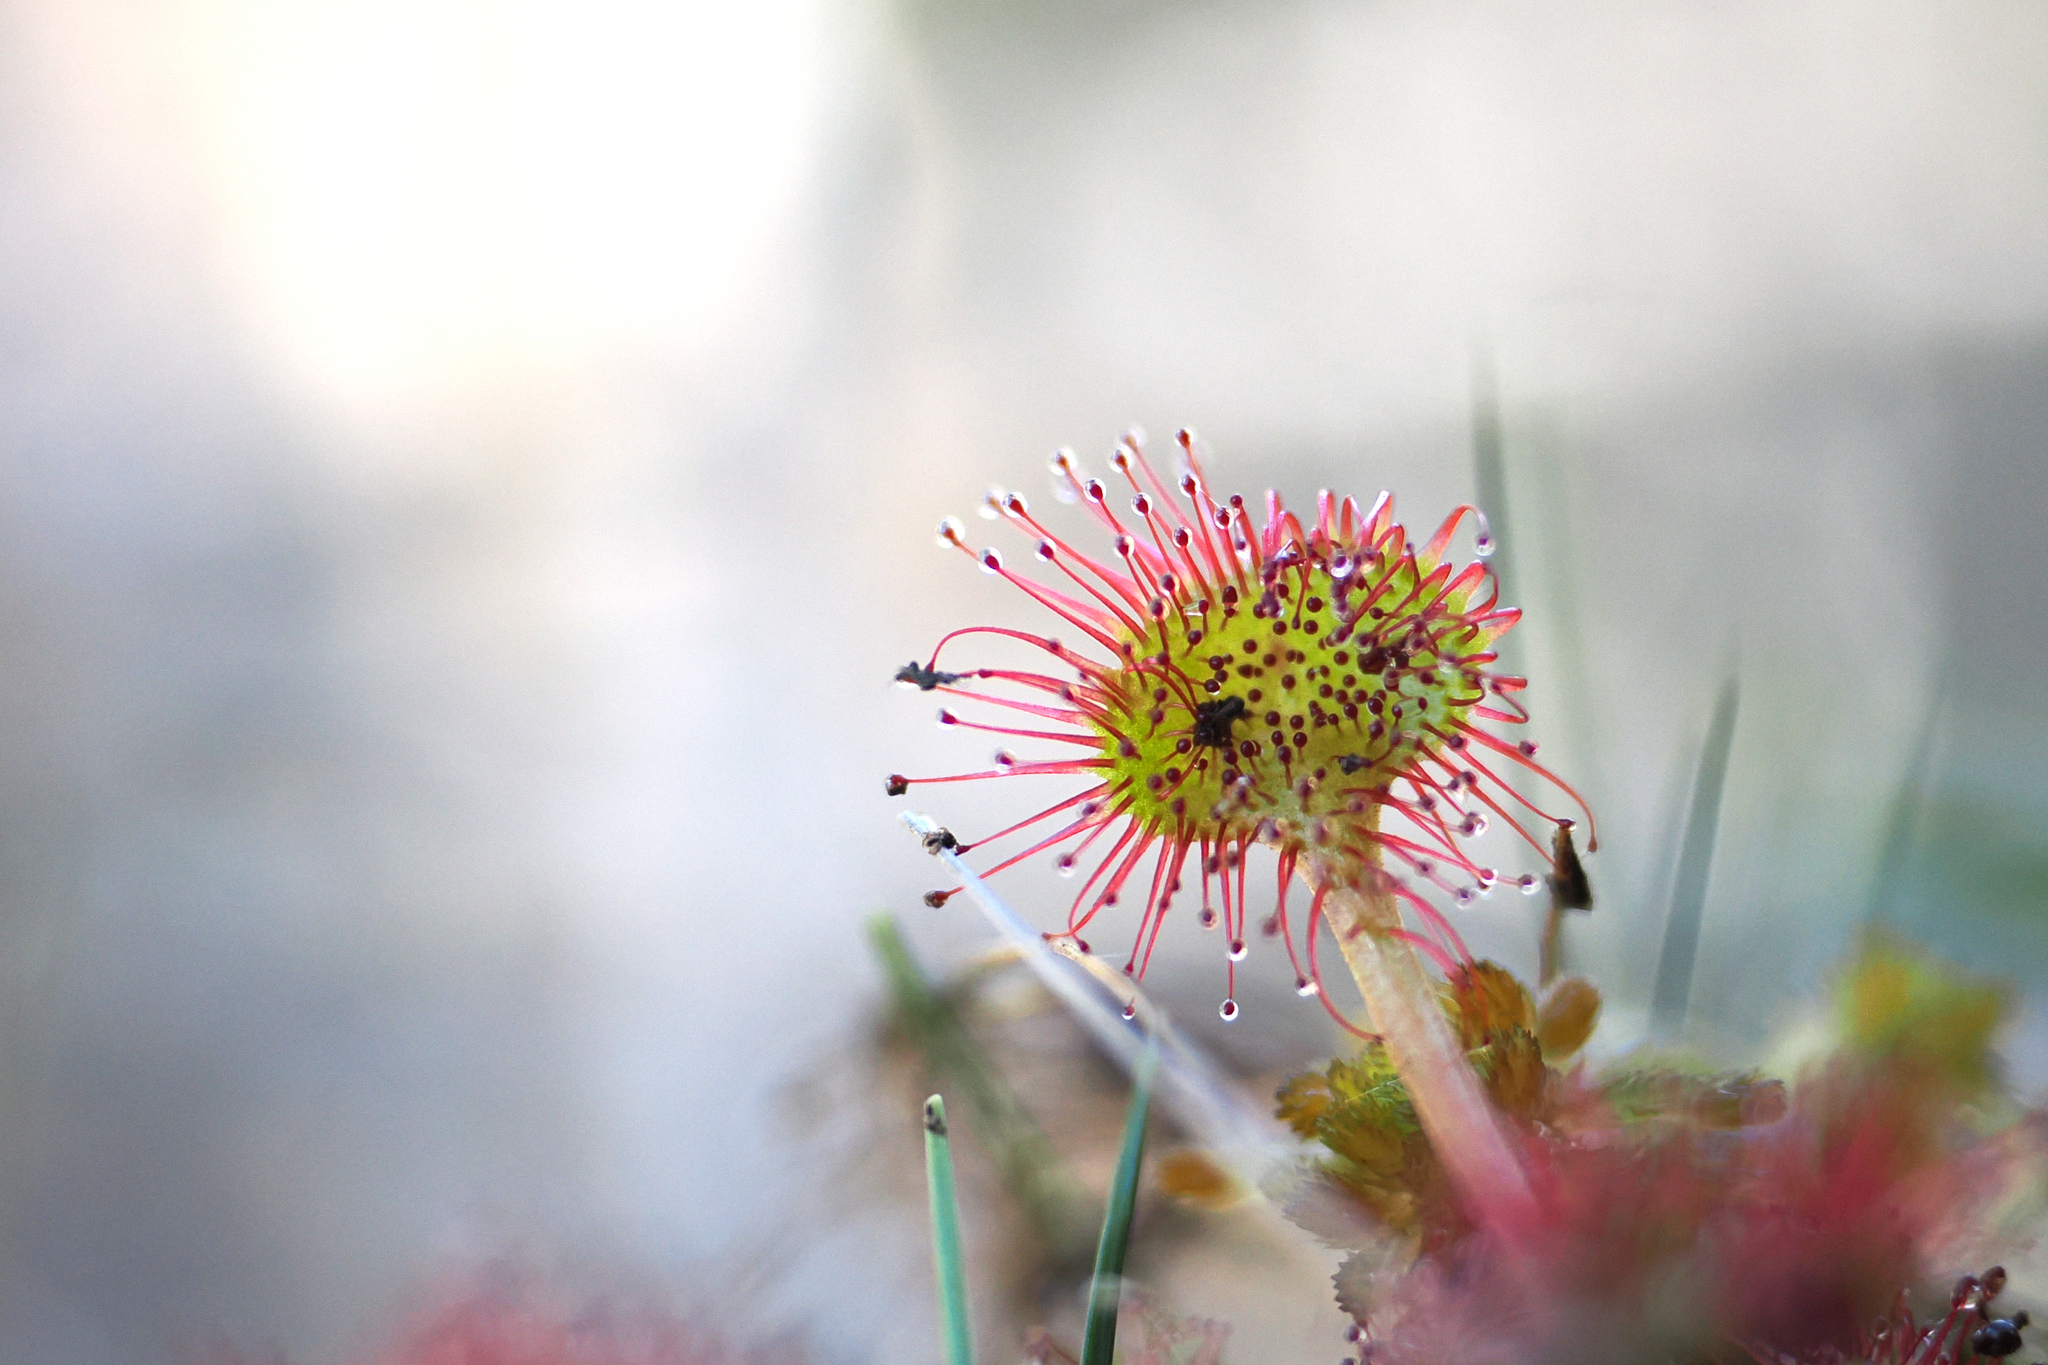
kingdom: Plantae
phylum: Tracheophyta
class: Magnoliopsida
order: Caryophyllales
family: Droseraceae
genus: Drosera
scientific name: Drosera rotundifolia
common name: Round-leaved sundew
